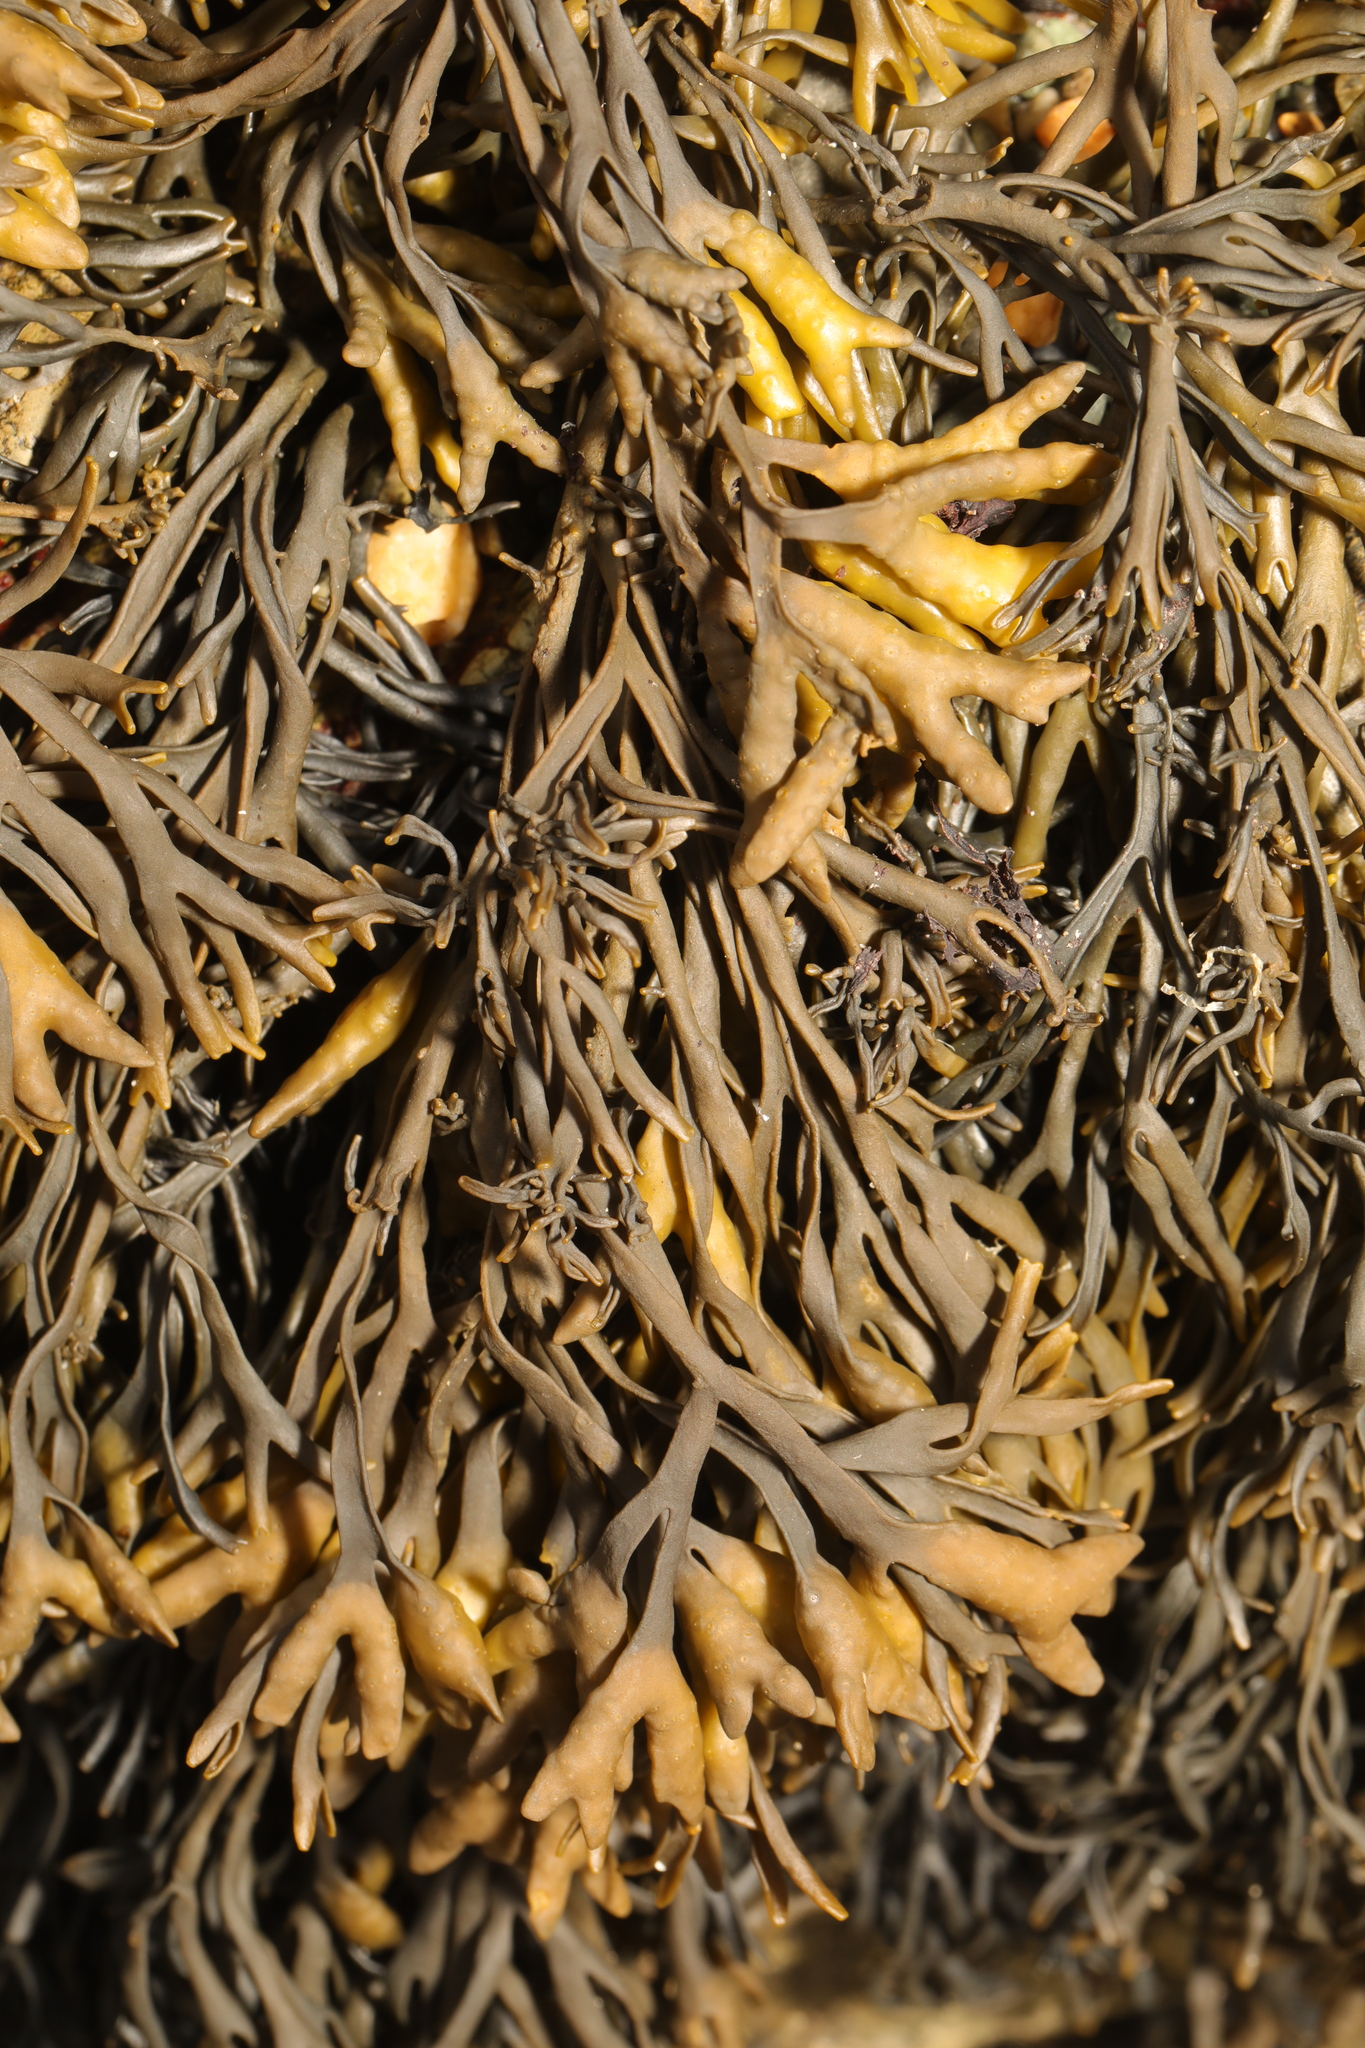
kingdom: Chromista
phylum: Ochrophyta
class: Phaeophyceae
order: Fucales
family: Fucaceae
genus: Pelvetia
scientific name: Pelvetia canaliculata
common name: Channelled wrack
